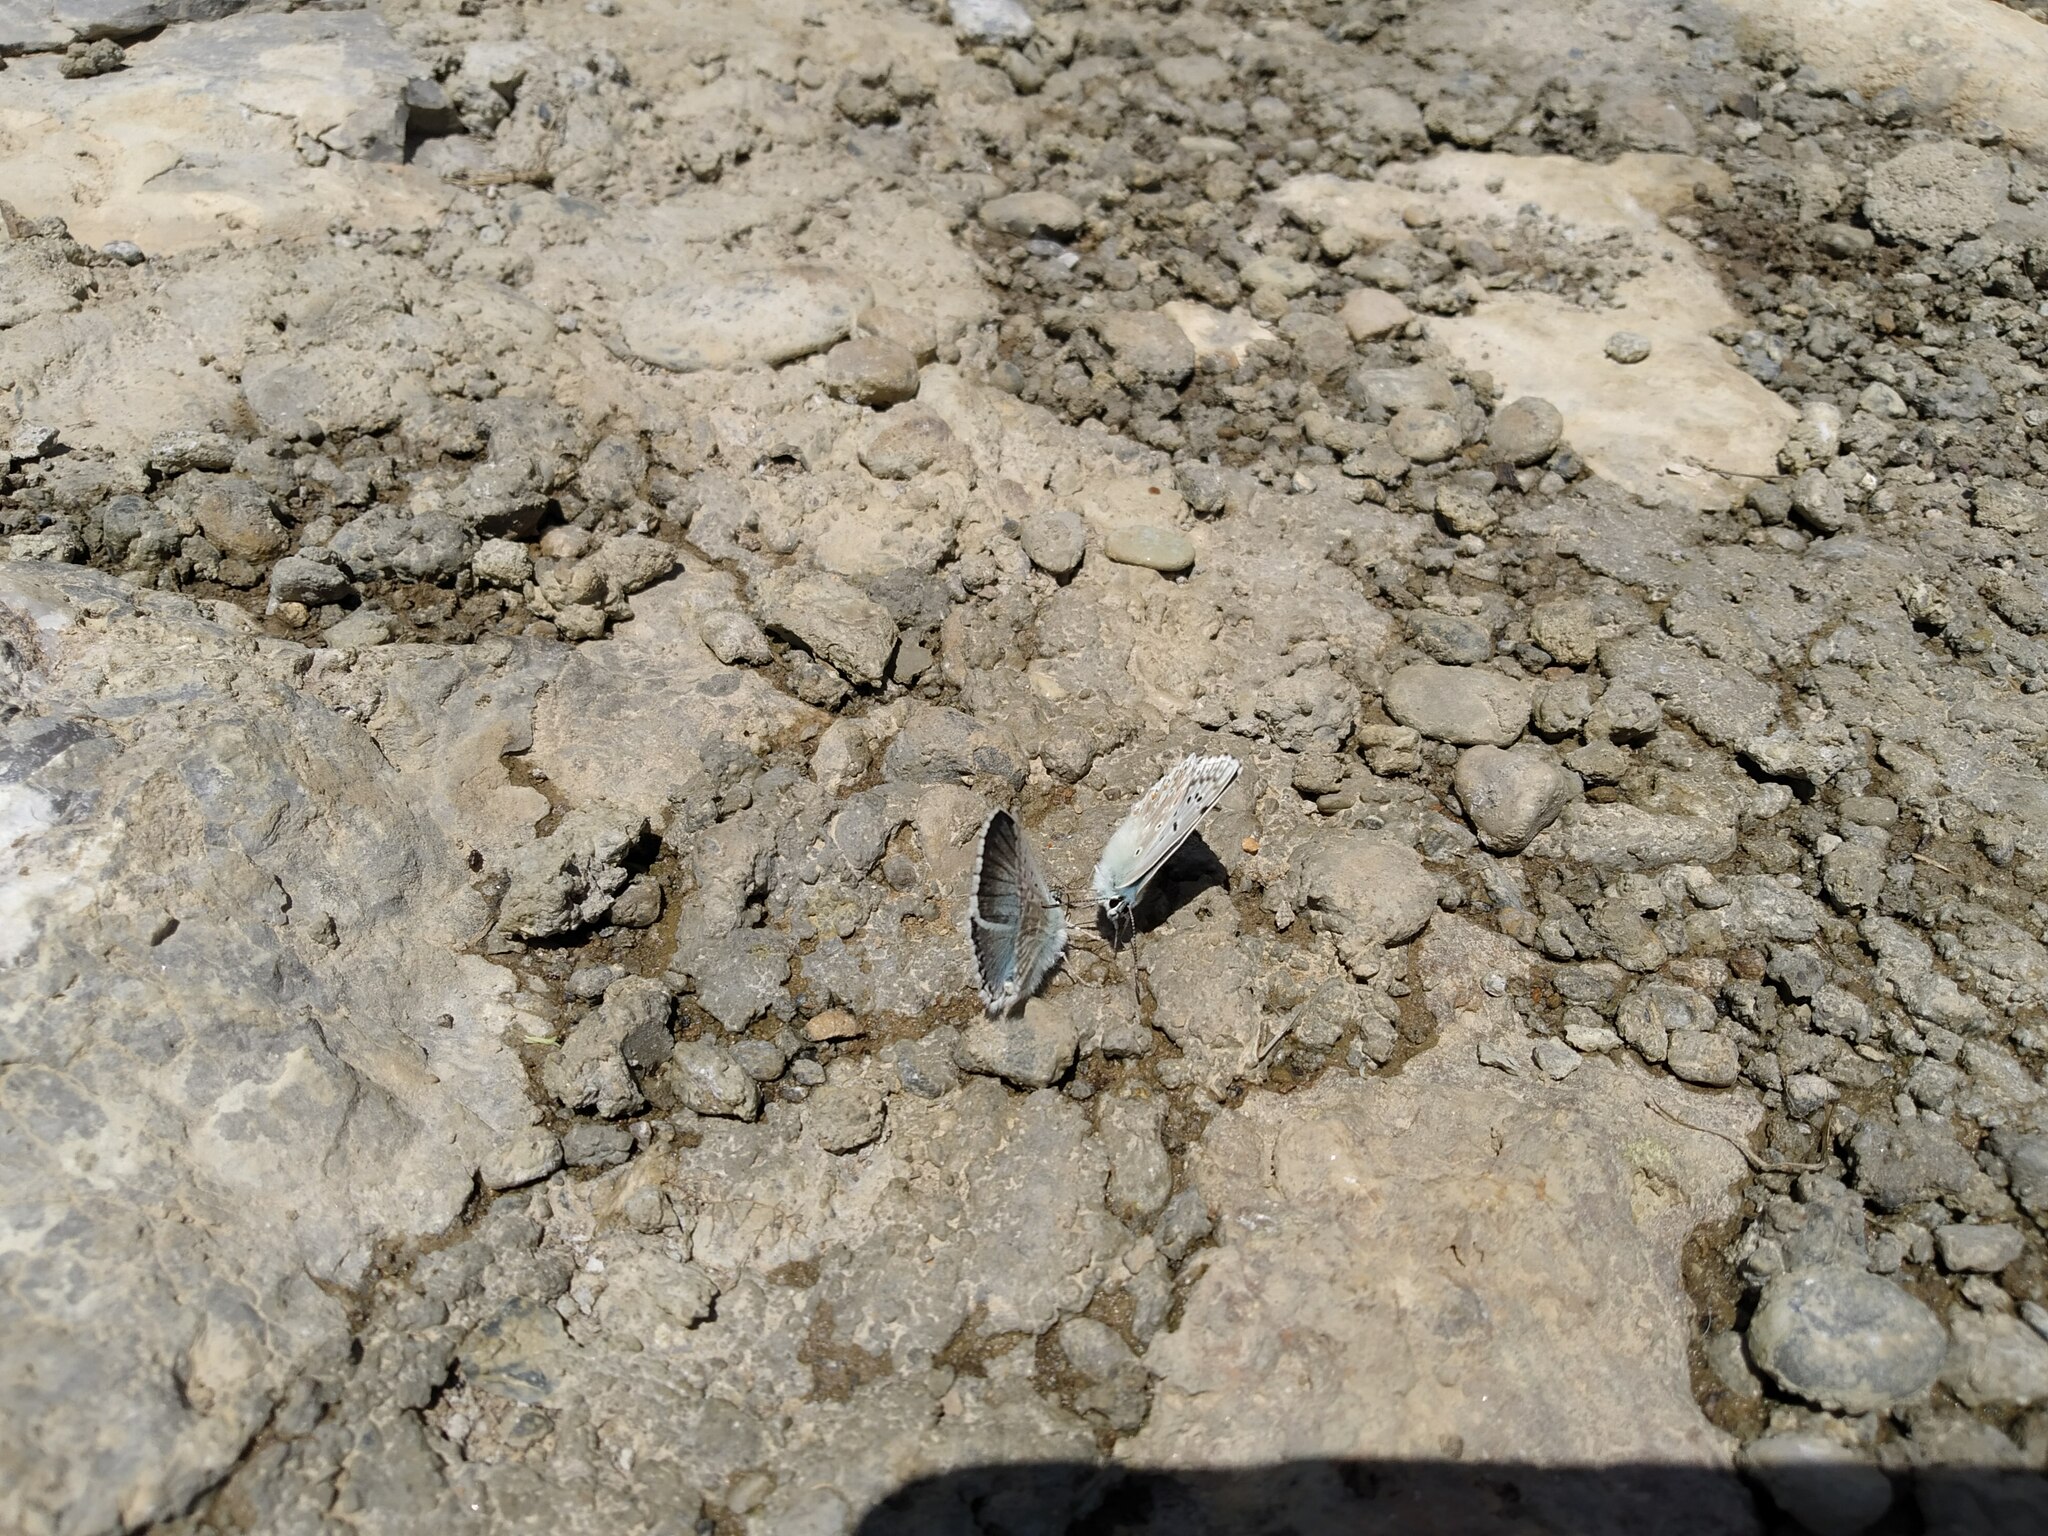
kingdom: Animalia
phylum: Arthropoda
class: Insecta
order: Lepidoptera
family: Lycaenidae
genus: Lysandra
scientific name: Lysandra coridon
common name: Chalkhill blue
